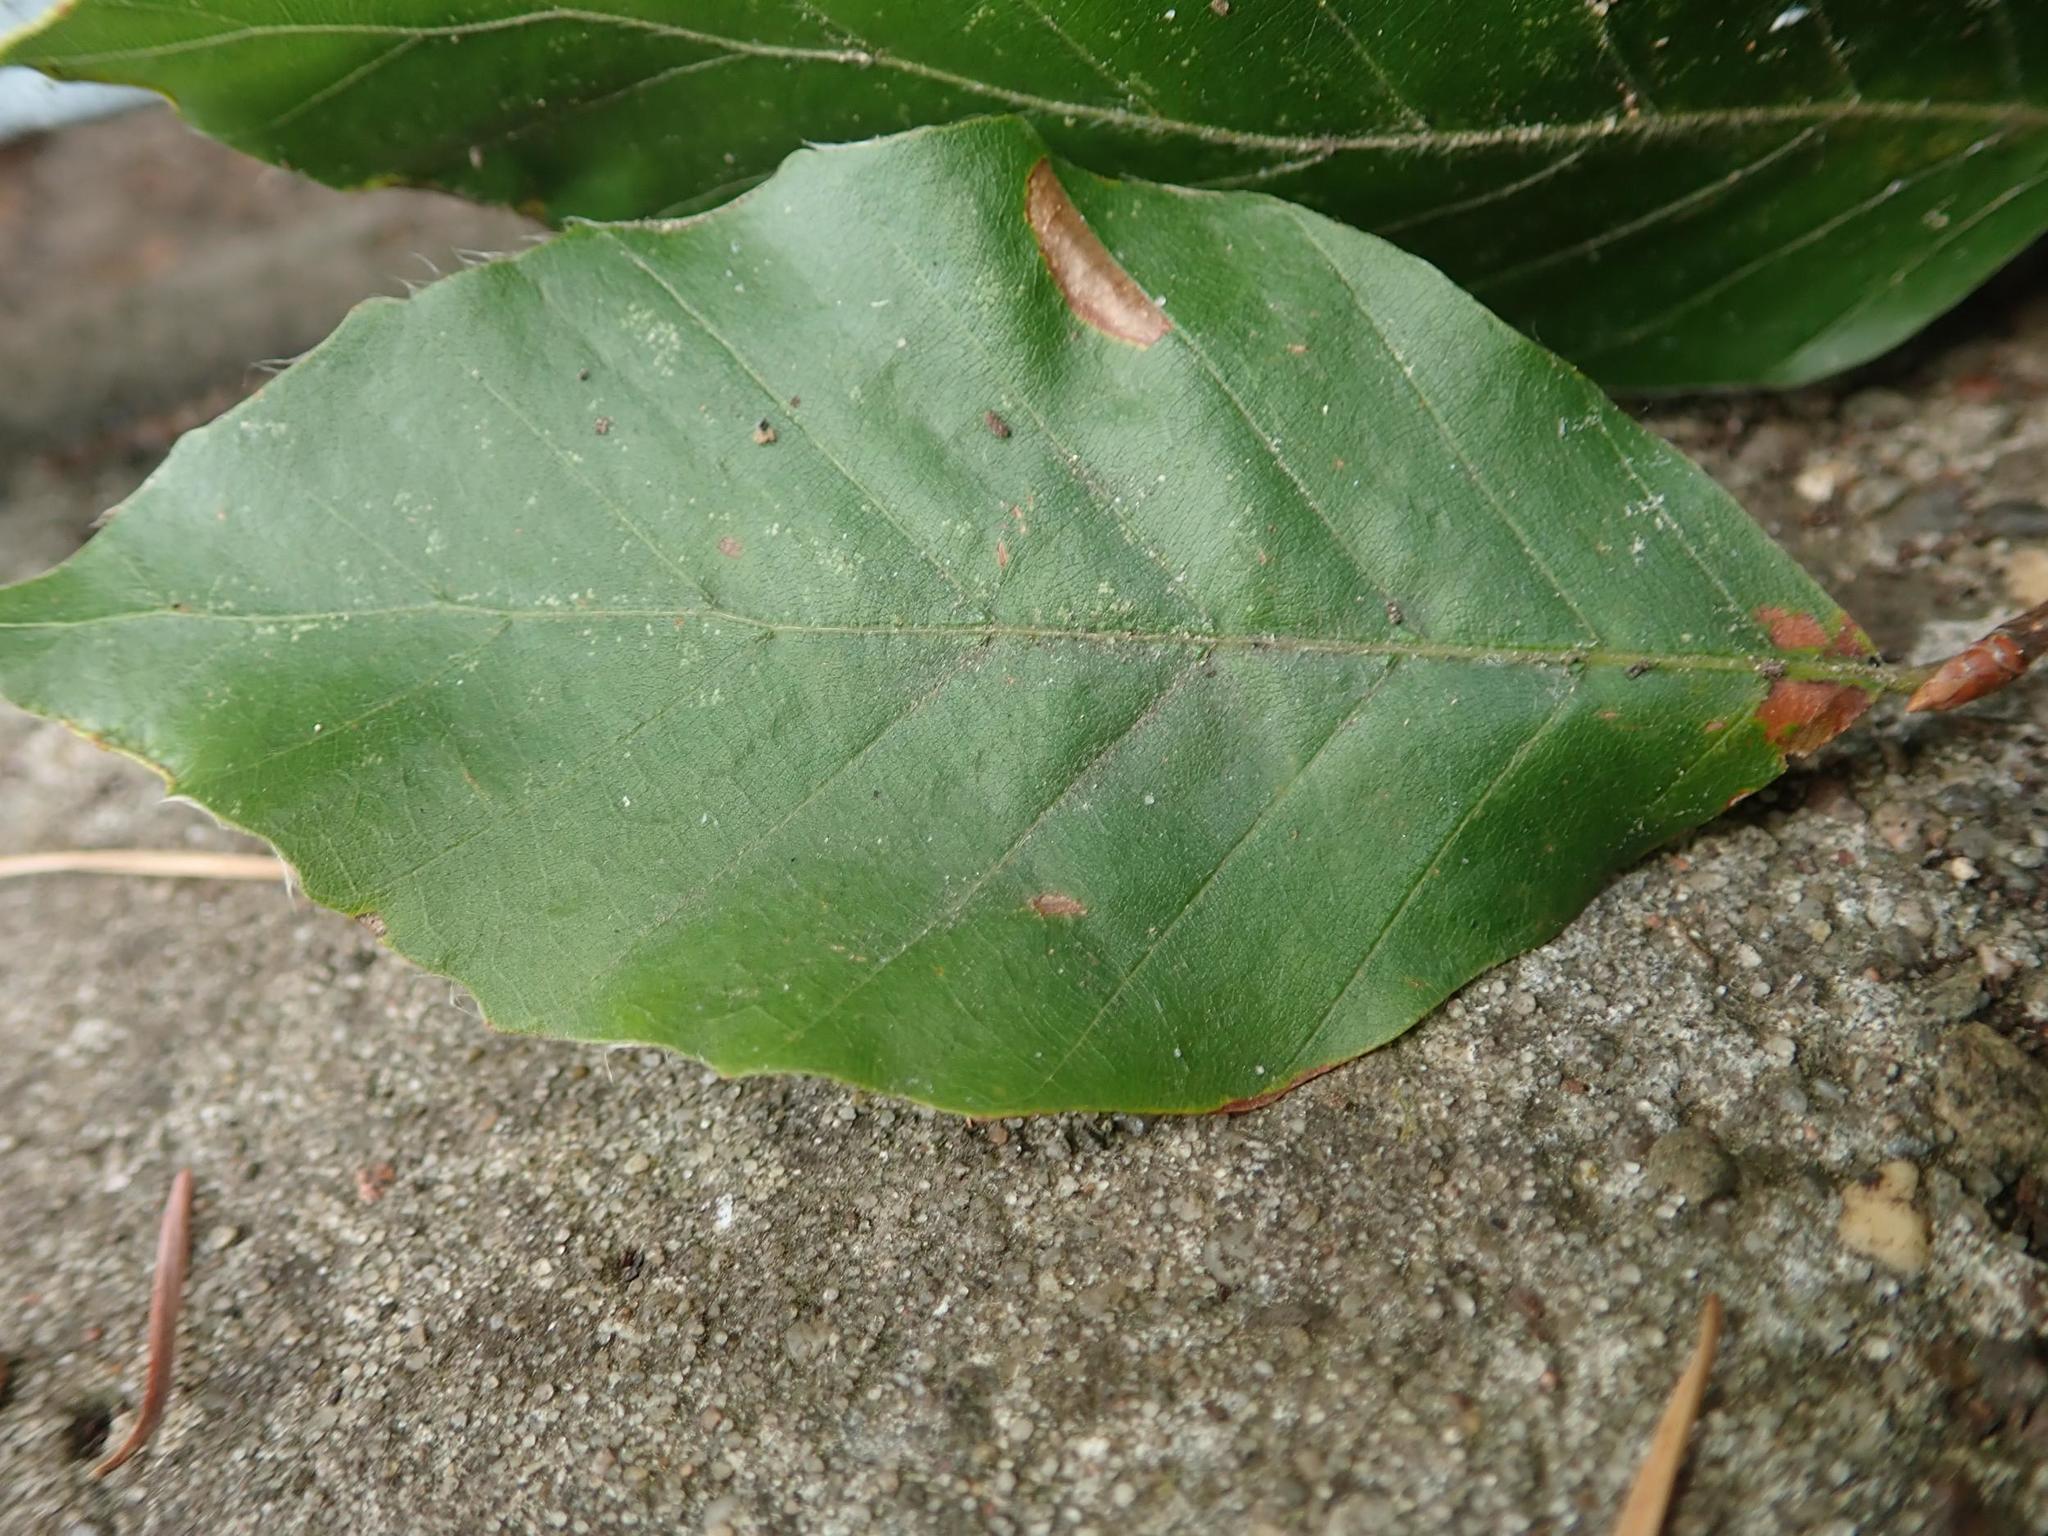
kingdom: Plantae
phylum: Tracheophyta
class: Magnoliopsida
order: Fagales
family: Fagaceae
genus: Fagus
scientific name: Fagus sylvatica
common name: Beech
